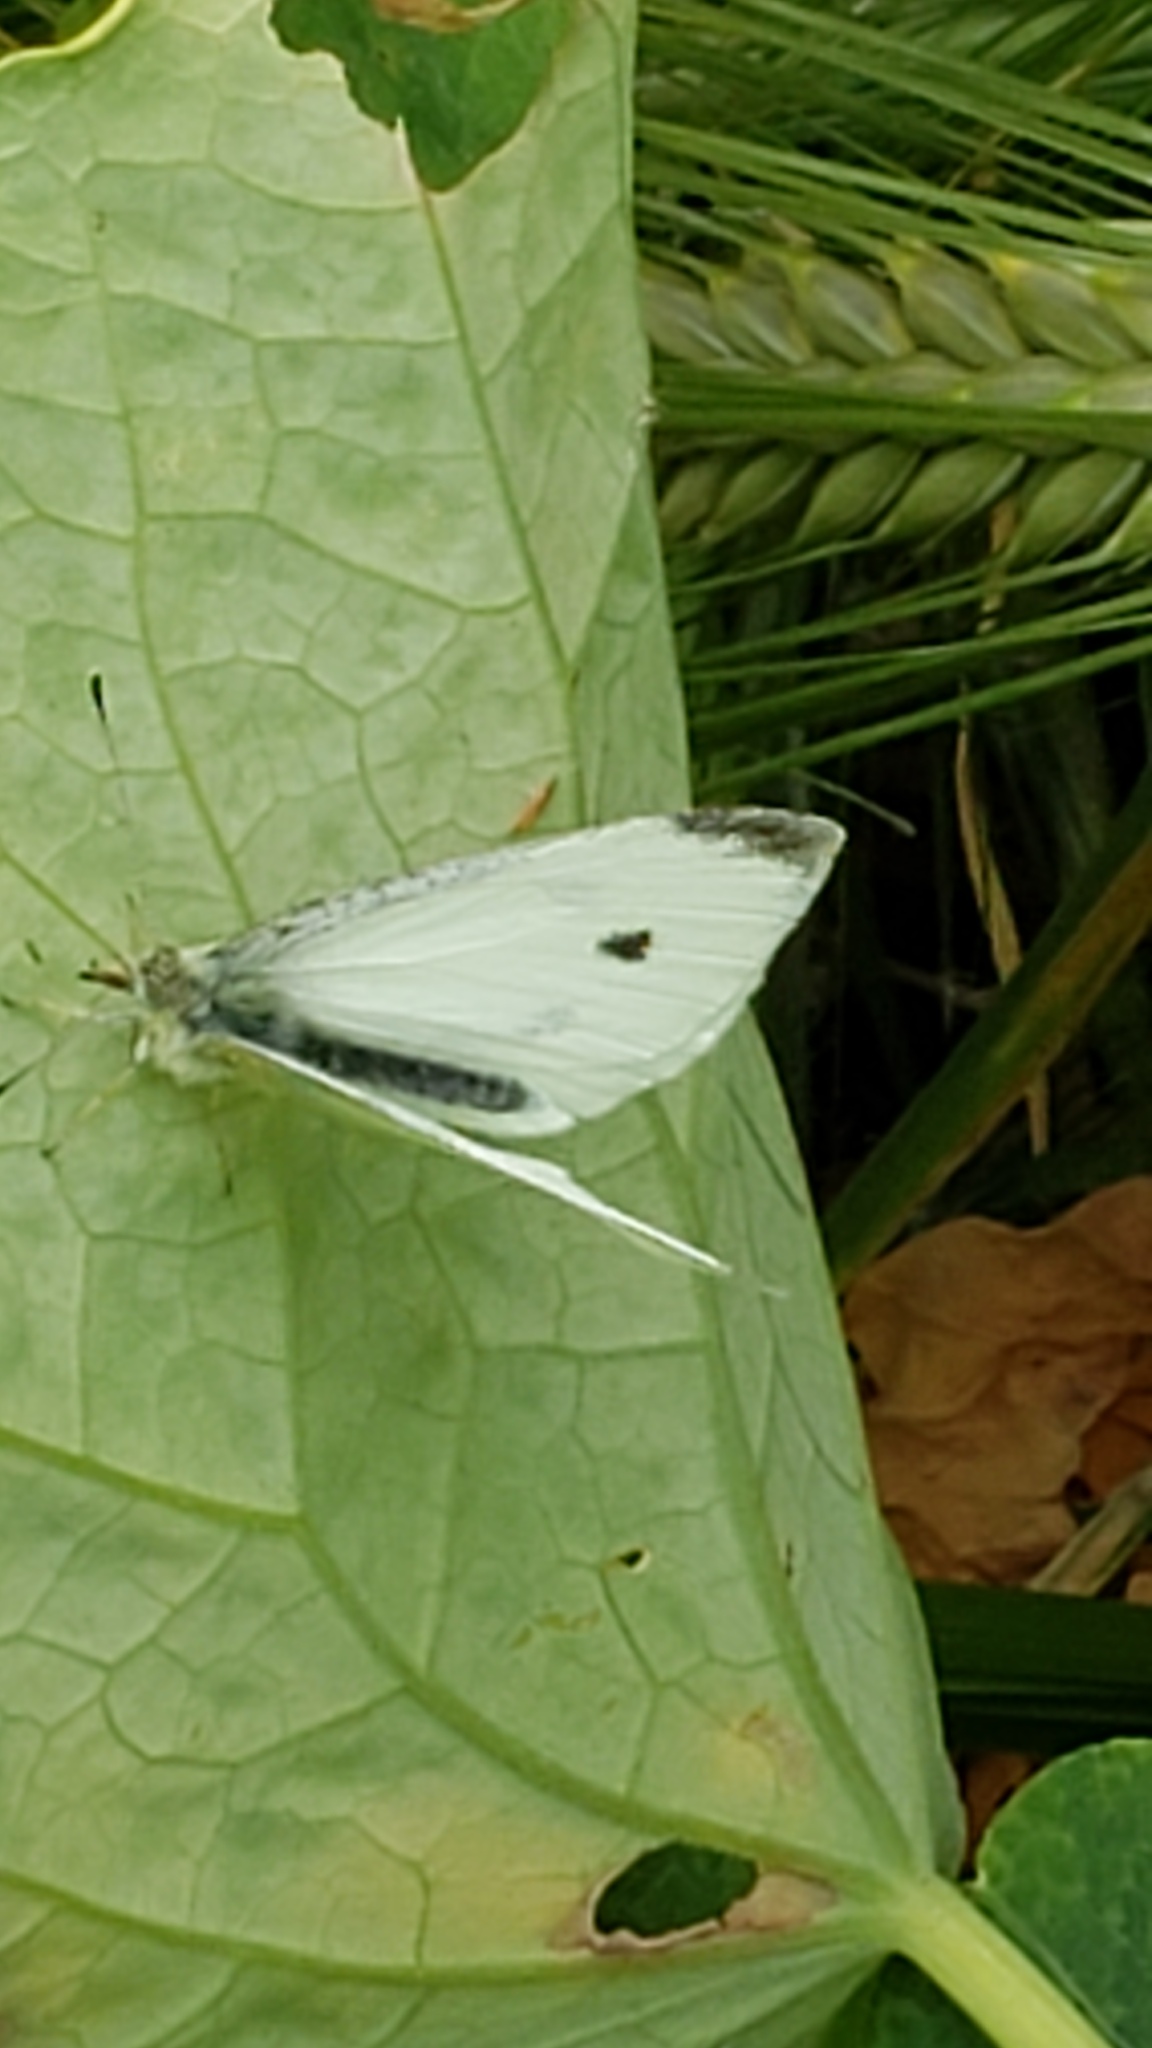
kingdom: Animalia
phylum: Arthropoda
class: Insecta
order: Lepidoptera
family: Pieridae
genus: Pieris
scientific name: Pieris rapae
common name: Small white
